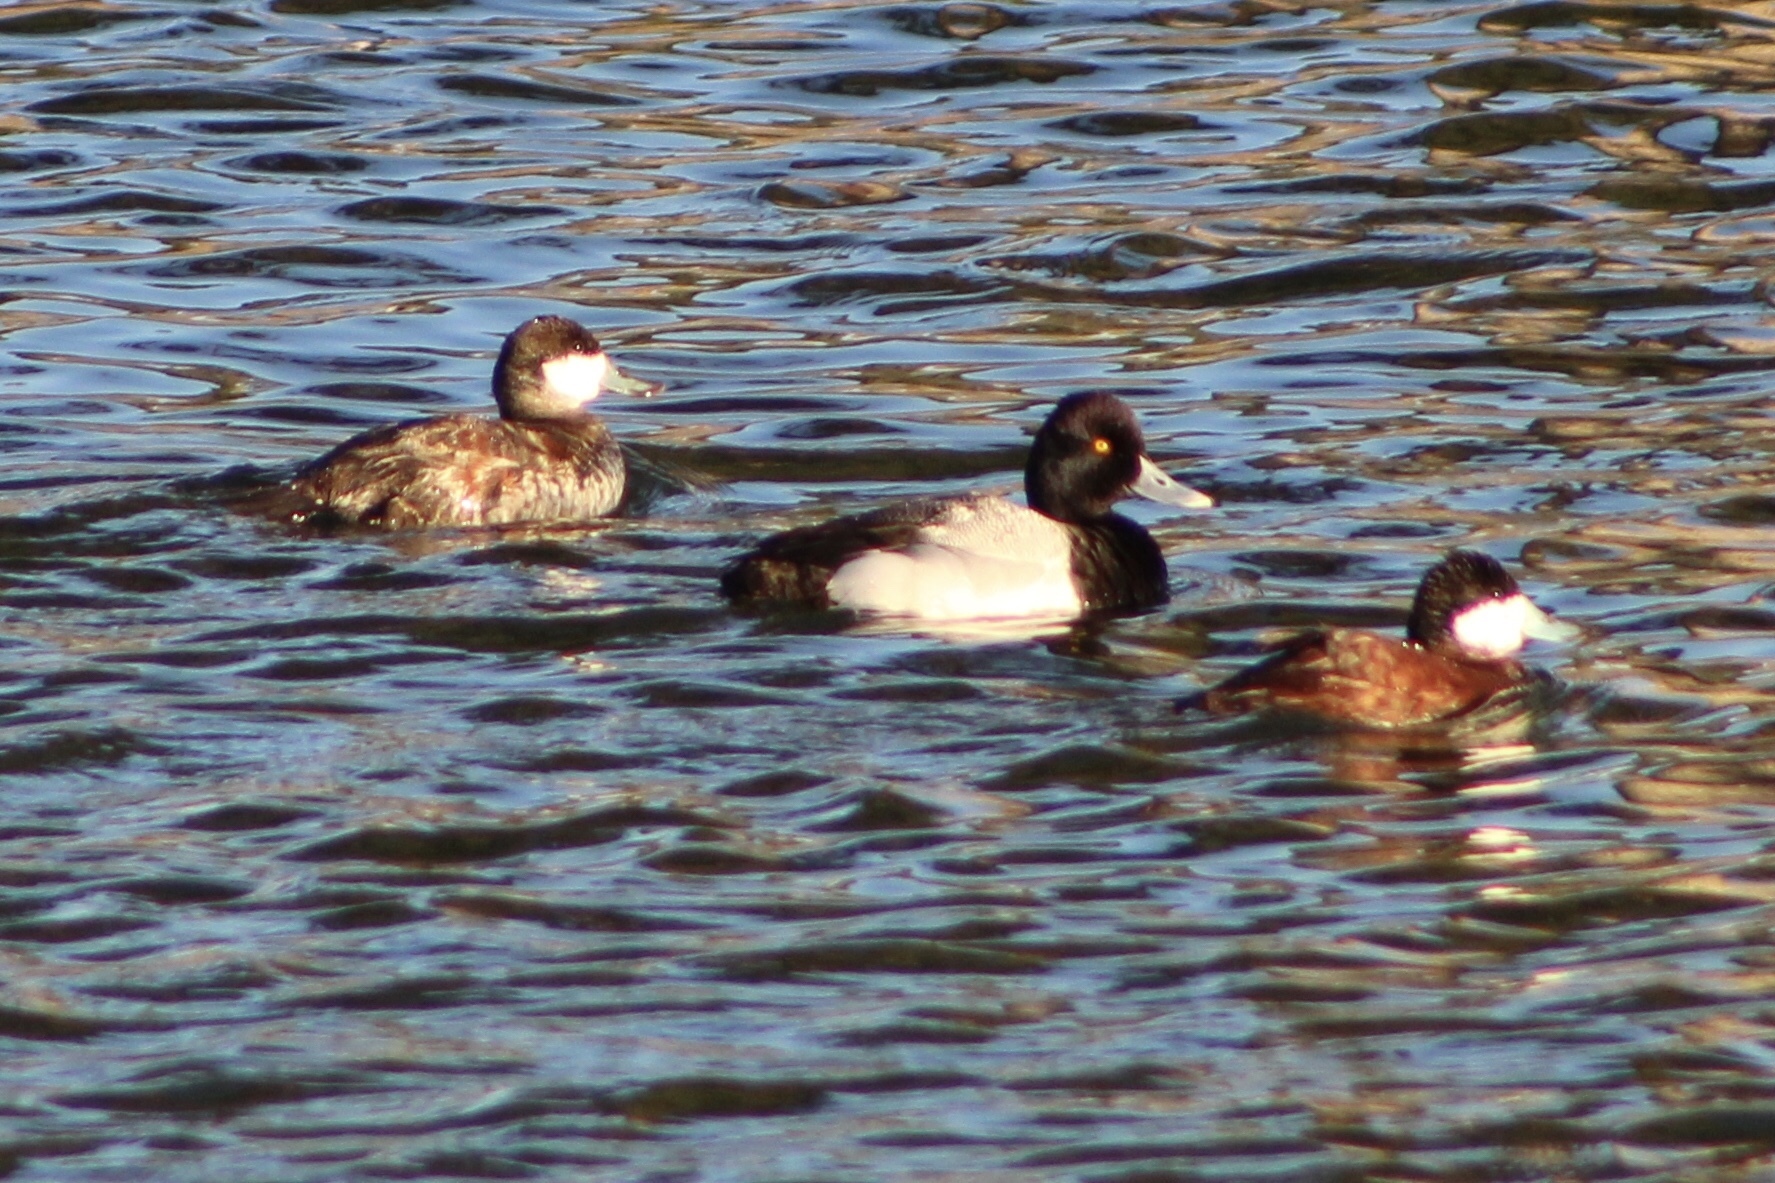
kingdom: Animalia
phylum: Chordata
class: Aves
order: Anseriformes
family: Anatidae
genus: Aythya
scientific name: Aythya affinis
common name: Lesser scaup
